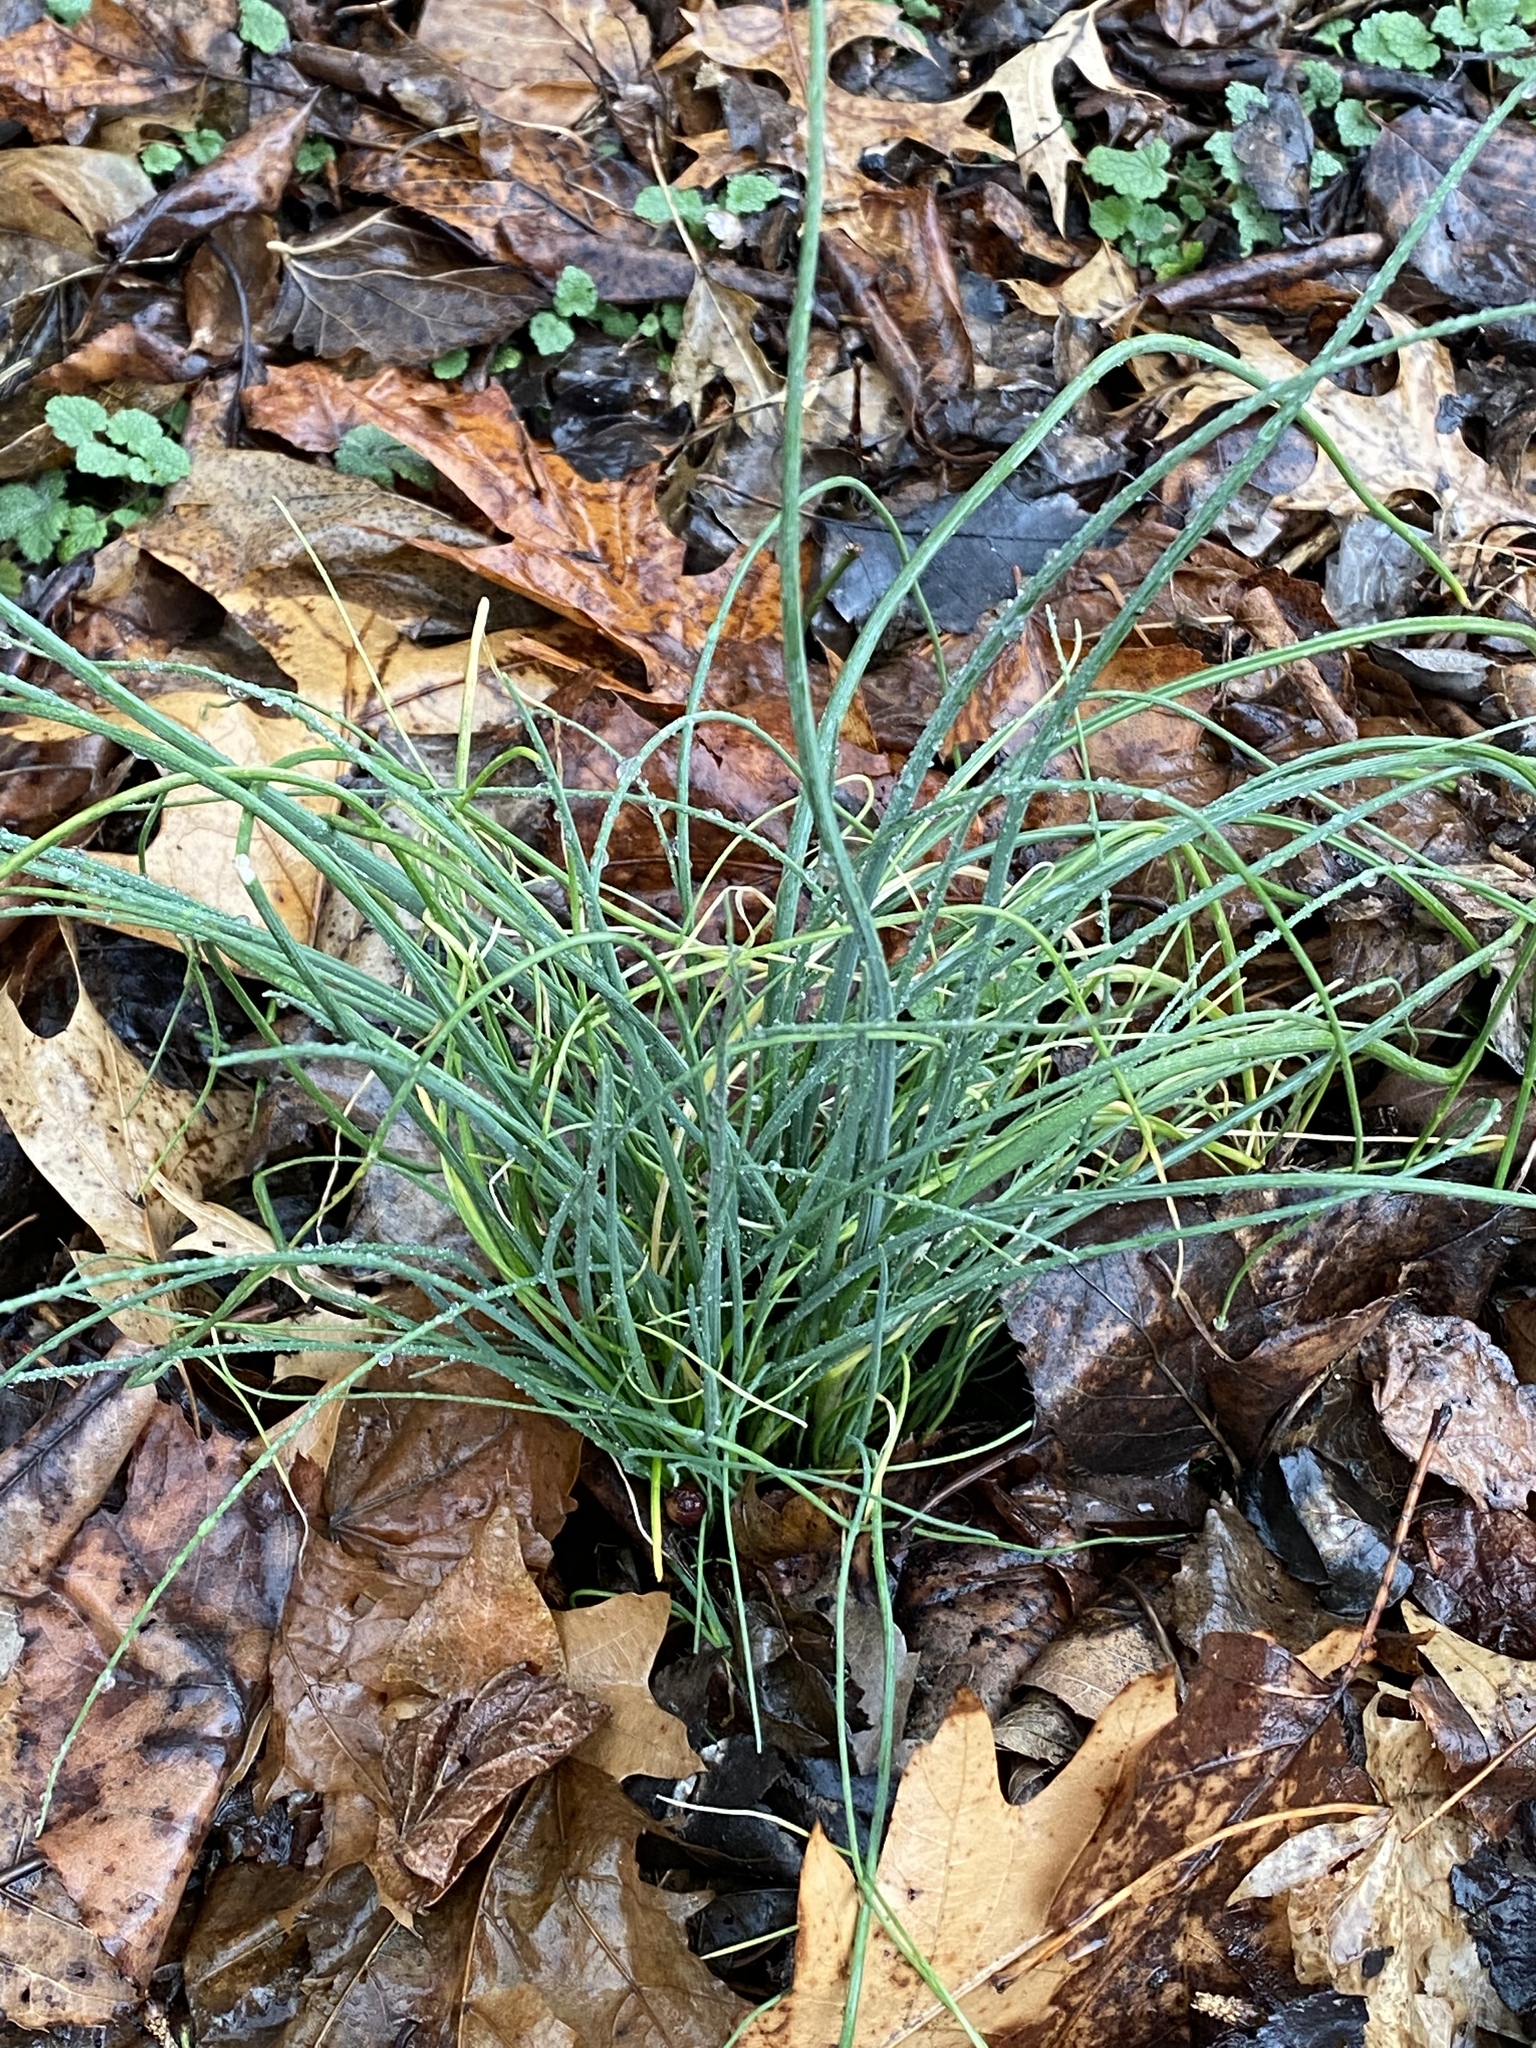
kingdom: Plantae
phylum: Tracheophyta
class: Liliopsida
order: Asparagales
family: Amaryllidaceae
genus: Allium
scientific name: Allium vineale
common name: Crow garlic
